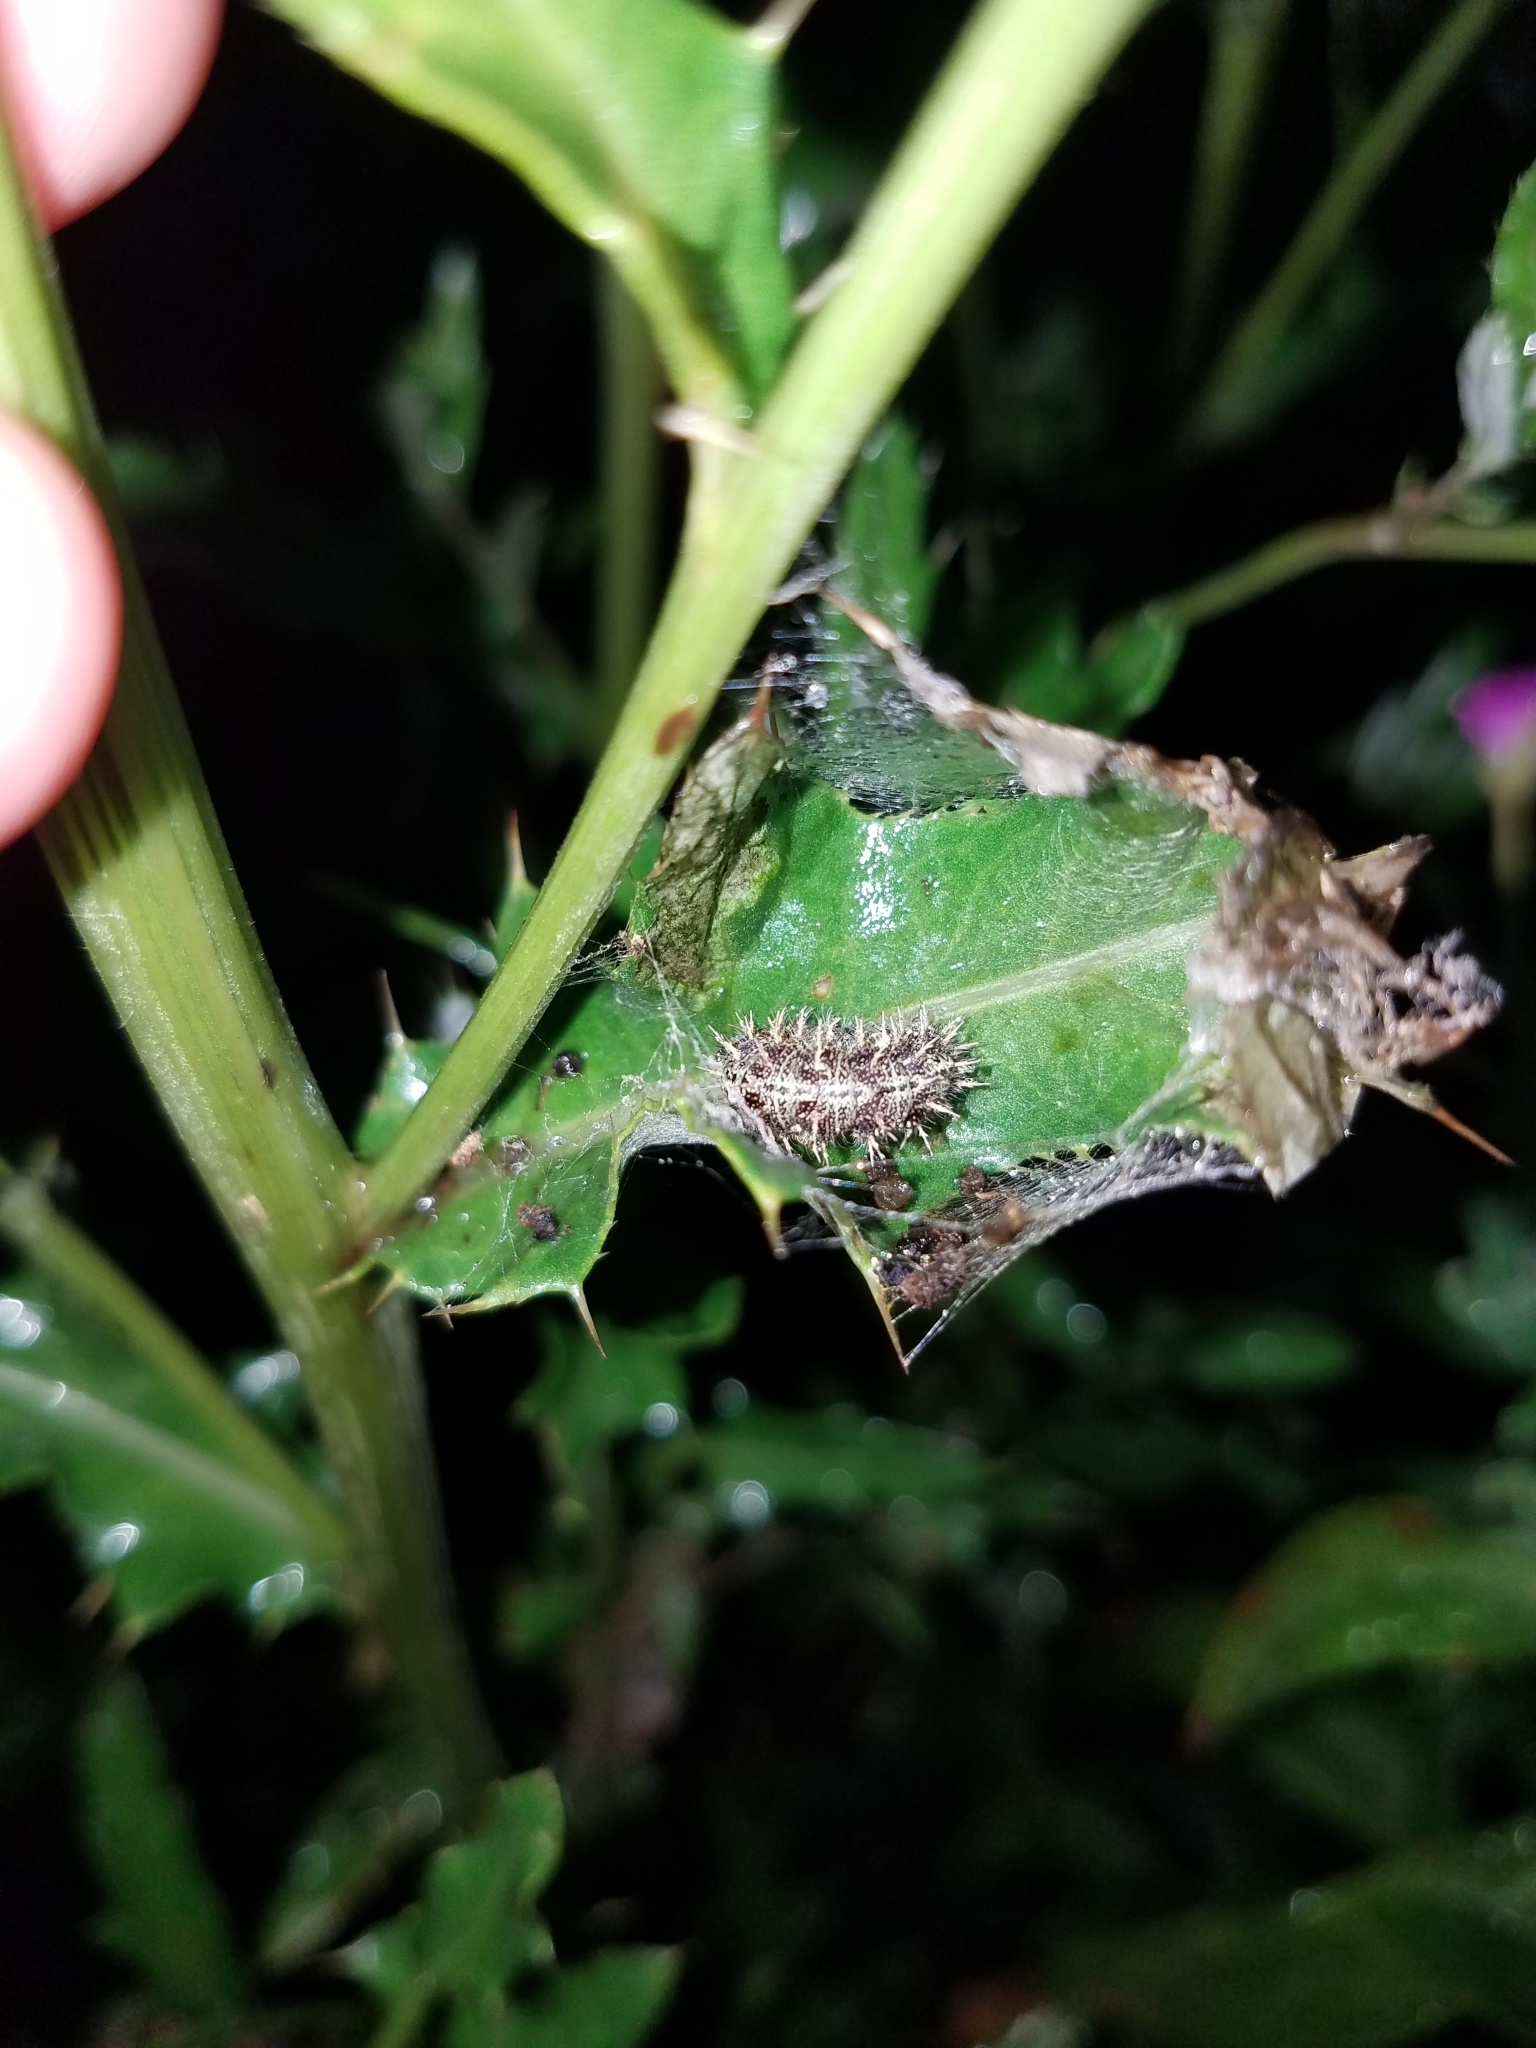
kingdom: Animalia
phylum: Arthropoda
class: Insecta
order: Lepidoptera
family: Nymphalidae
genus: Vanessa
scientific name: Vanessa cardui
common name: Painted lady
